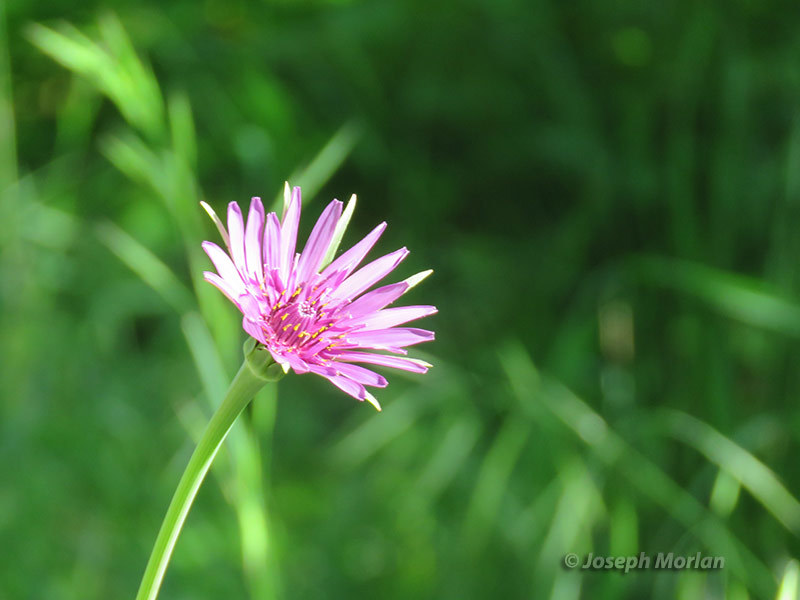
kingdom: Plantae
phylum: Tracheophyta
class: Magnoliopsida
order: Asterales
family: Asteraceae
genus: Tragopogon
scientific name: Tragopogon porrifolius
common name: Salsify
